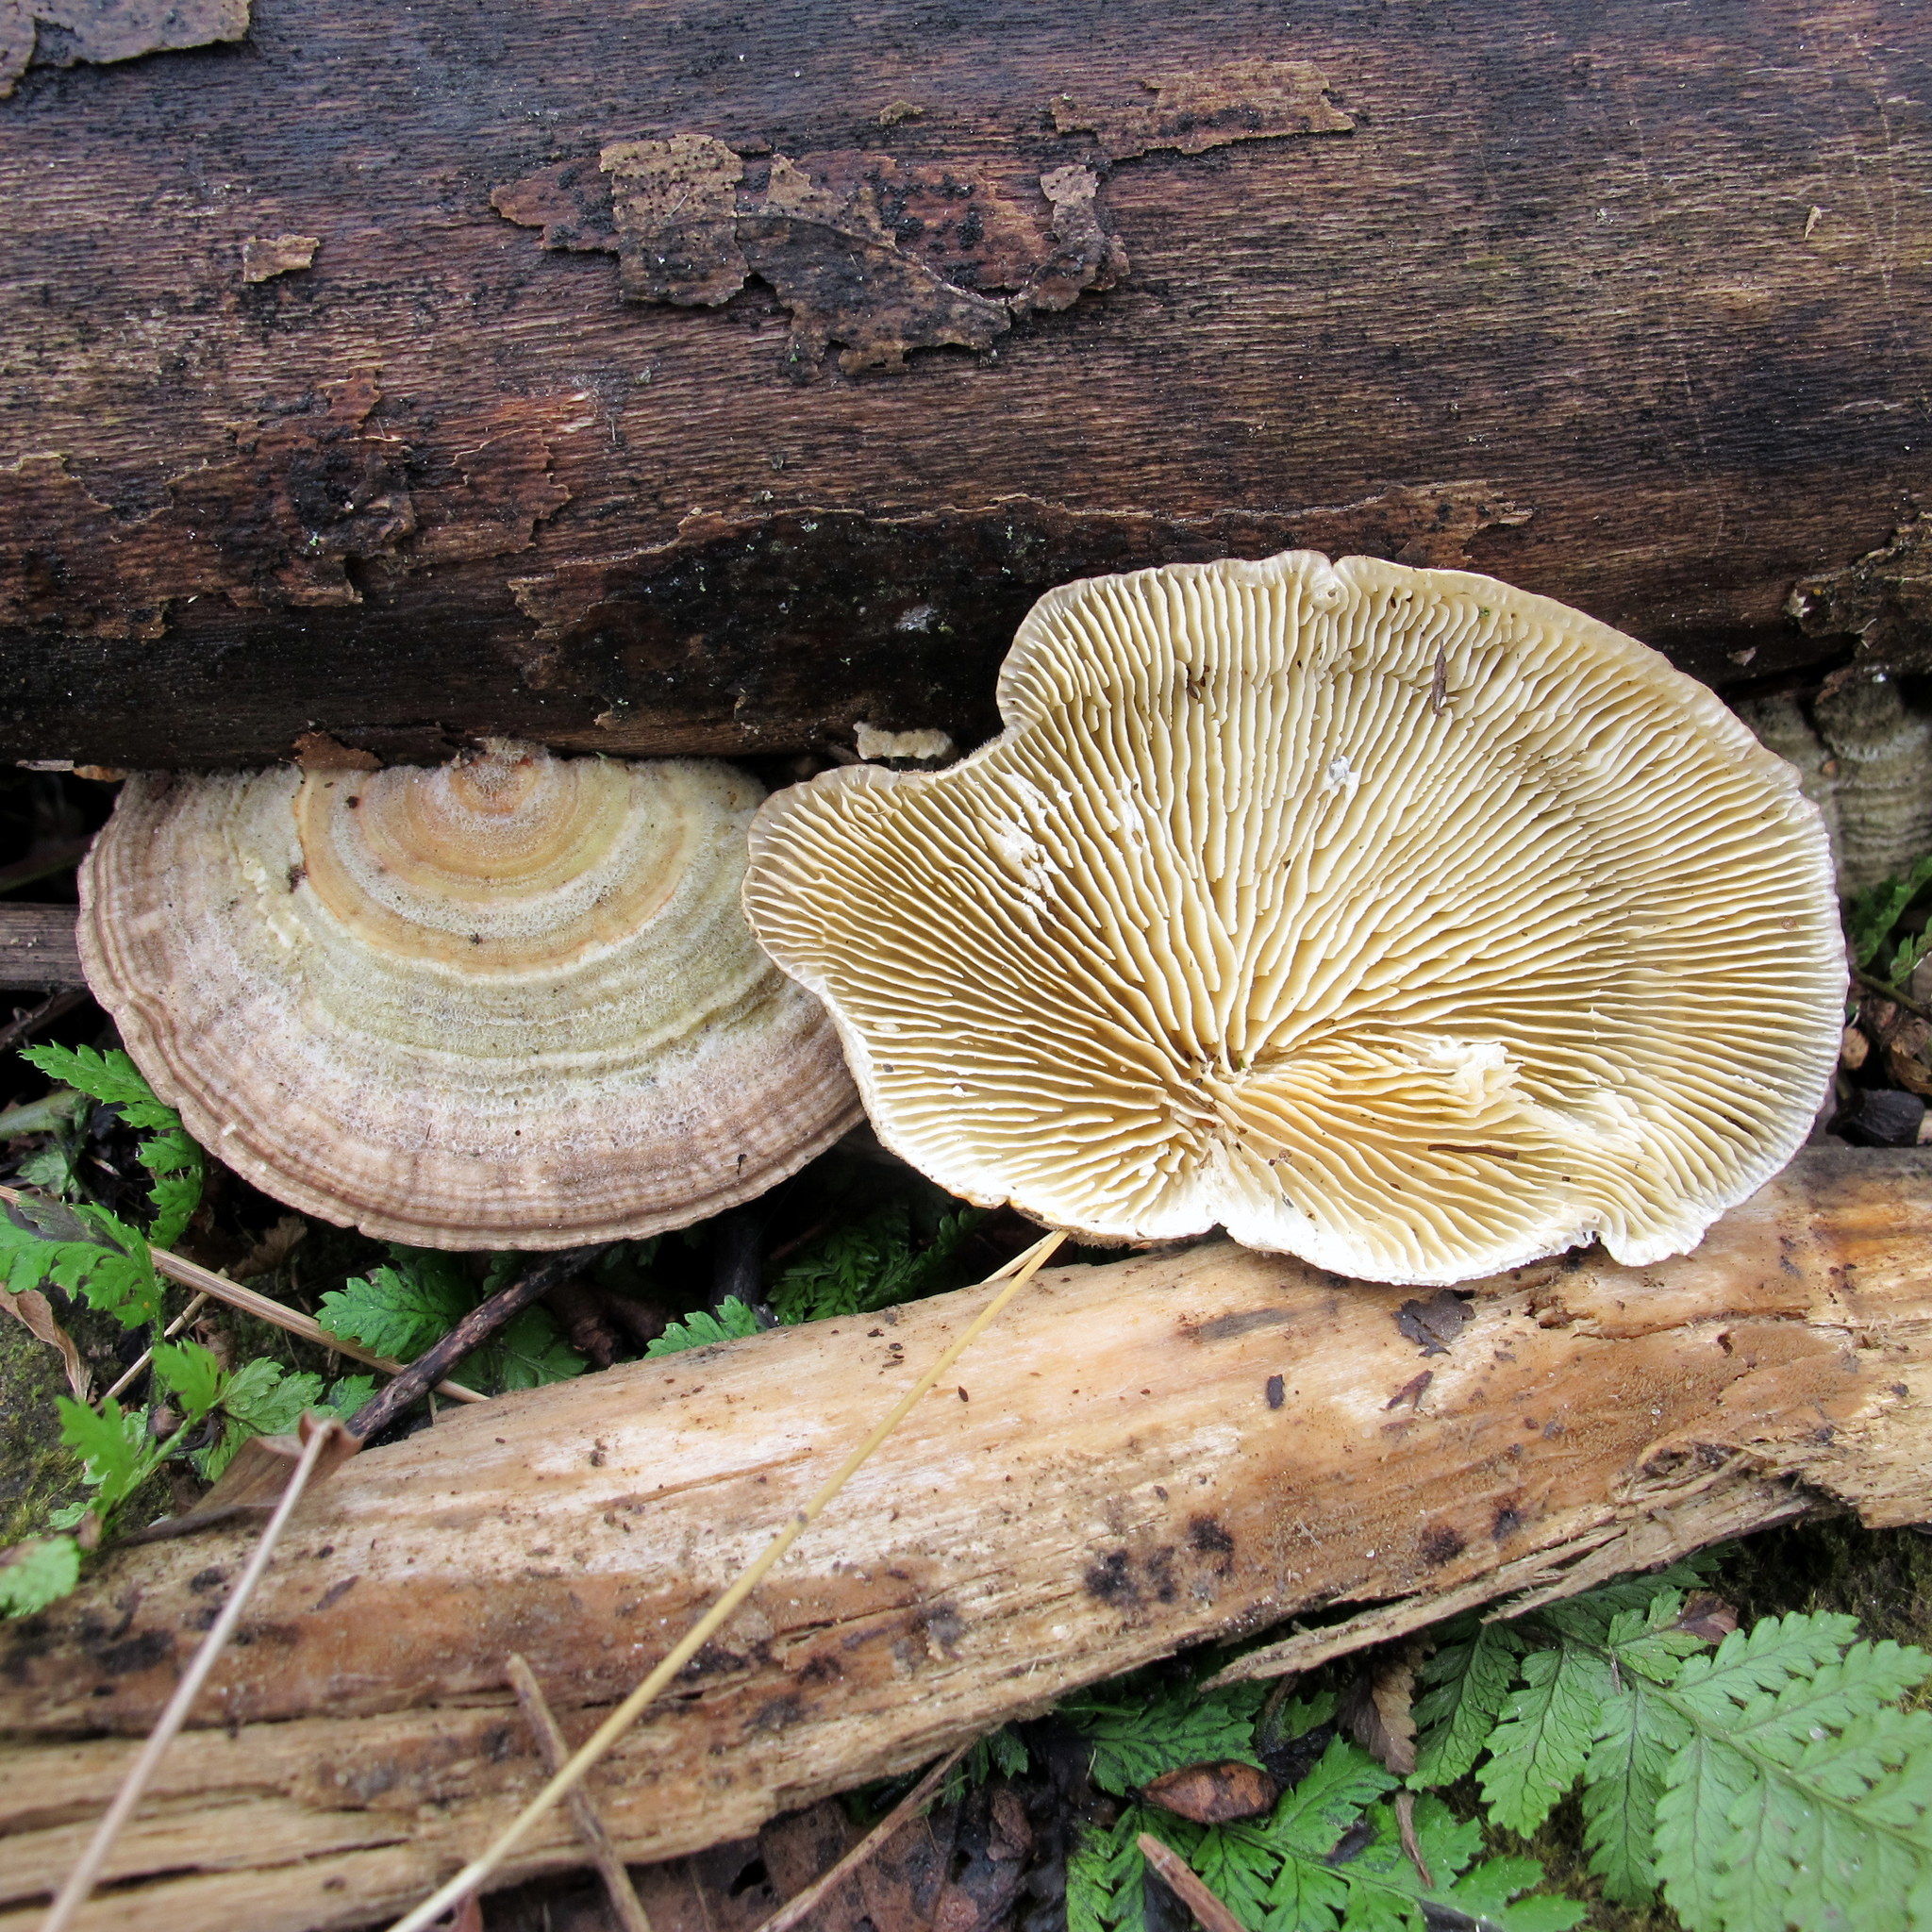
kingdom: Fungi
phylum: Basidiomycota
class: Agaricomycetes
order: Polyporales
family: Polyporaceae
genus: Lenzites
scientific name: Lenzites betulinus
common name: Birch mazegill
